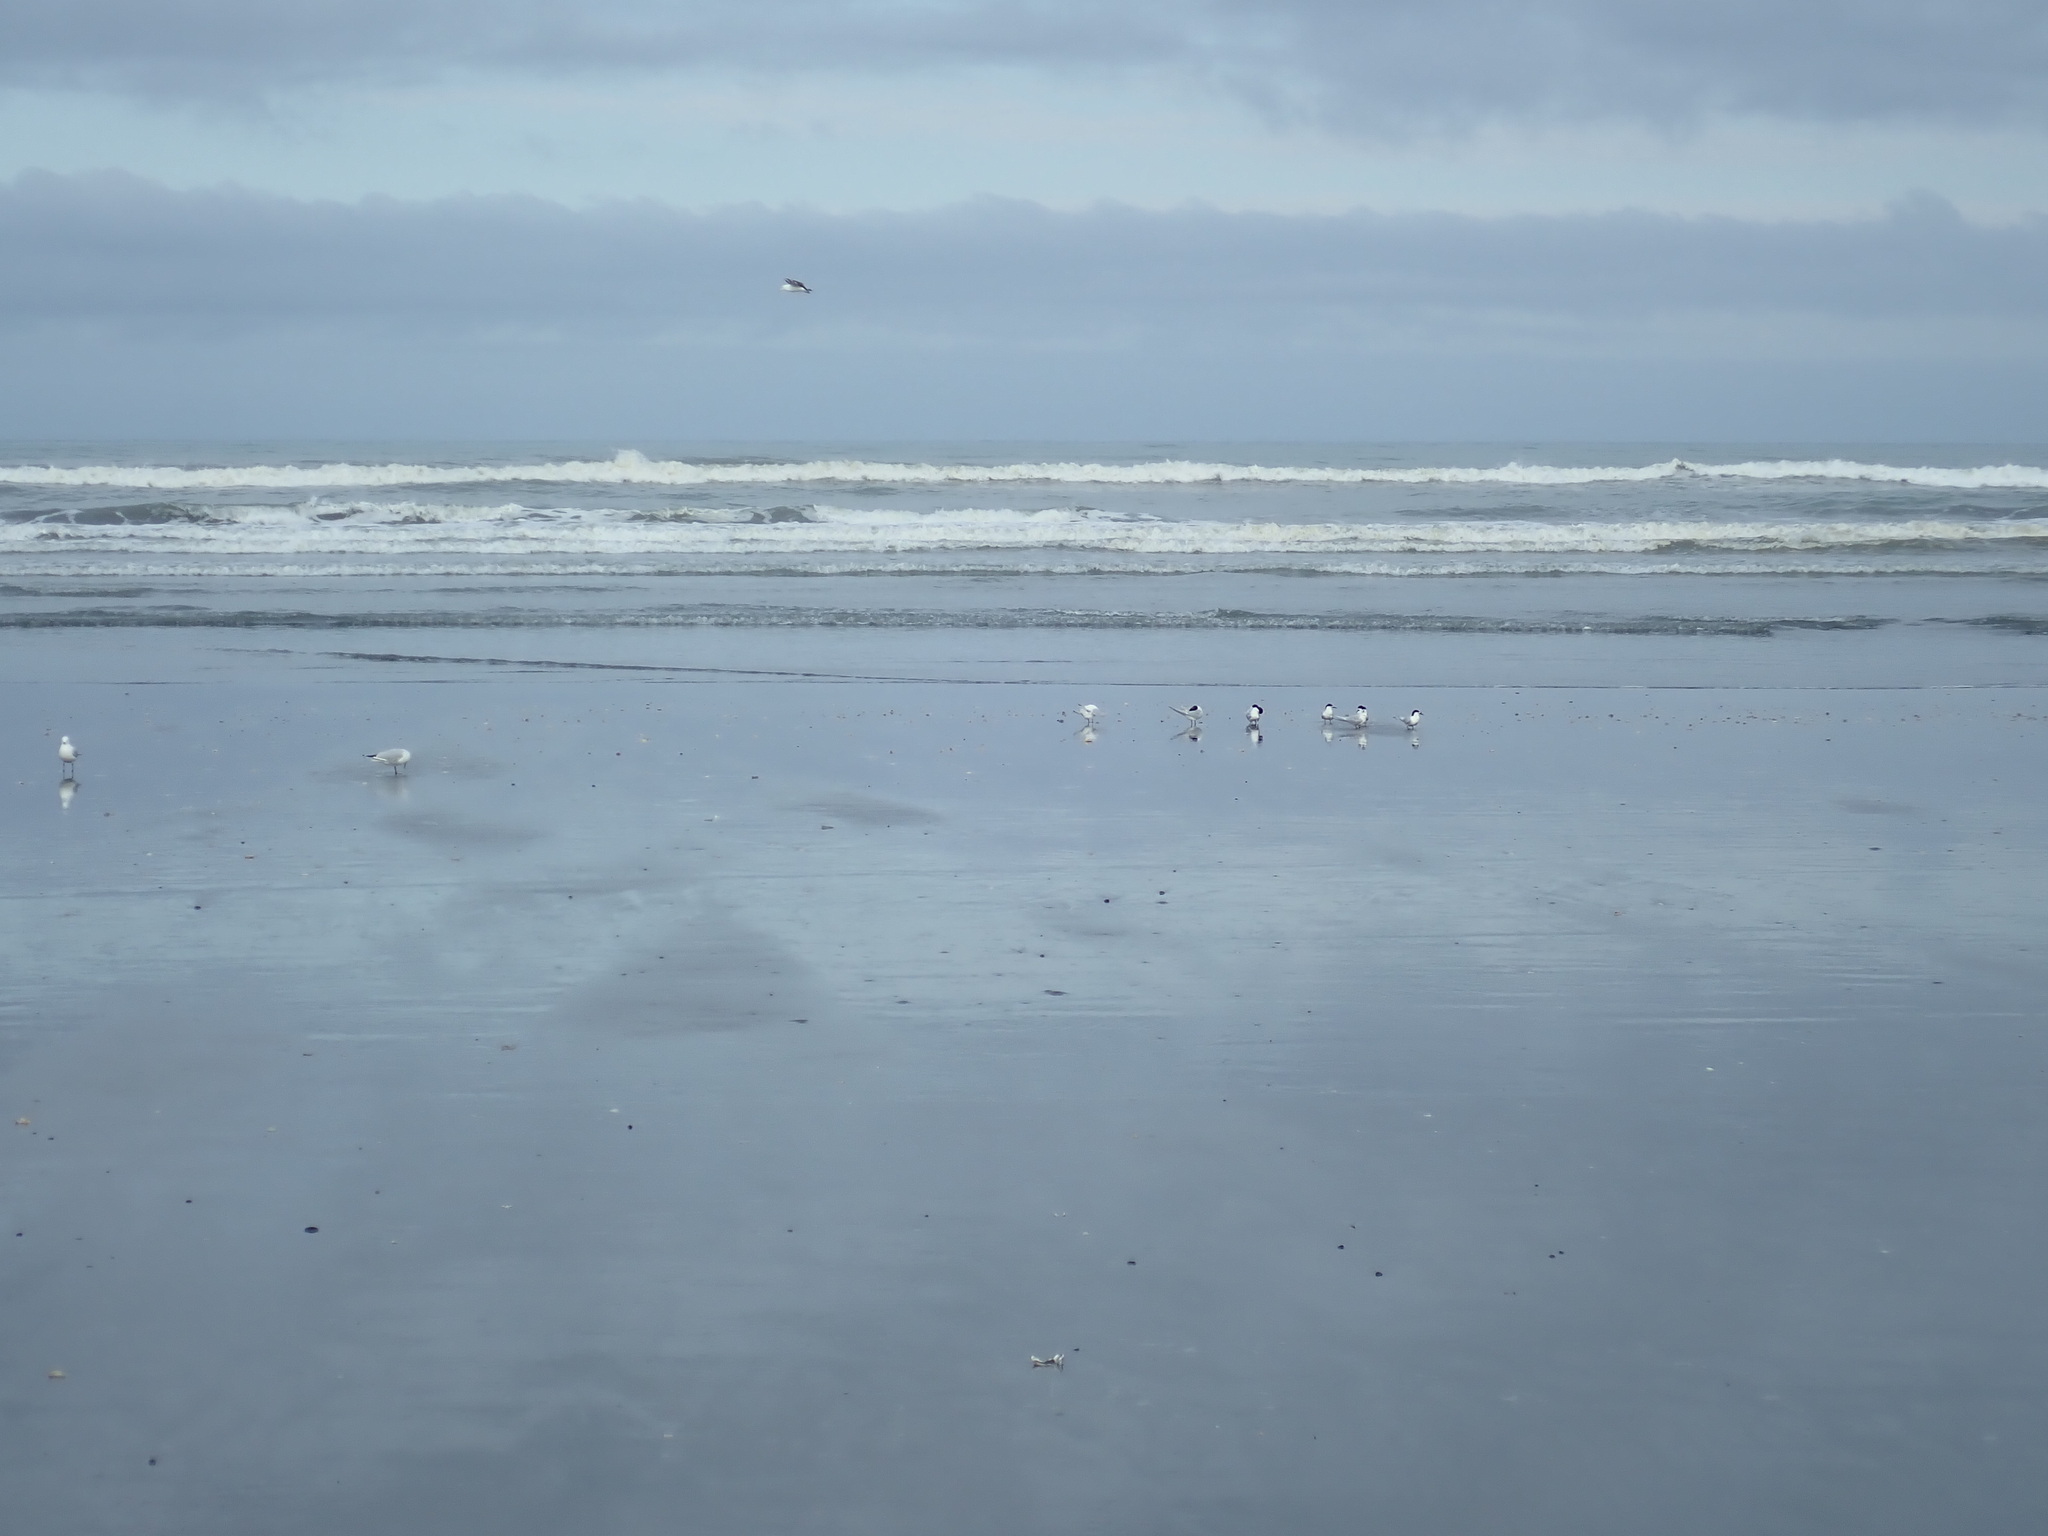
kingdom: Animalia
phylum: Chordata
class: Aves
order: Charadriiformes
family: Laridae
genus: Sterna
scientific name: Sterna striata
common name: White-fronted tern
